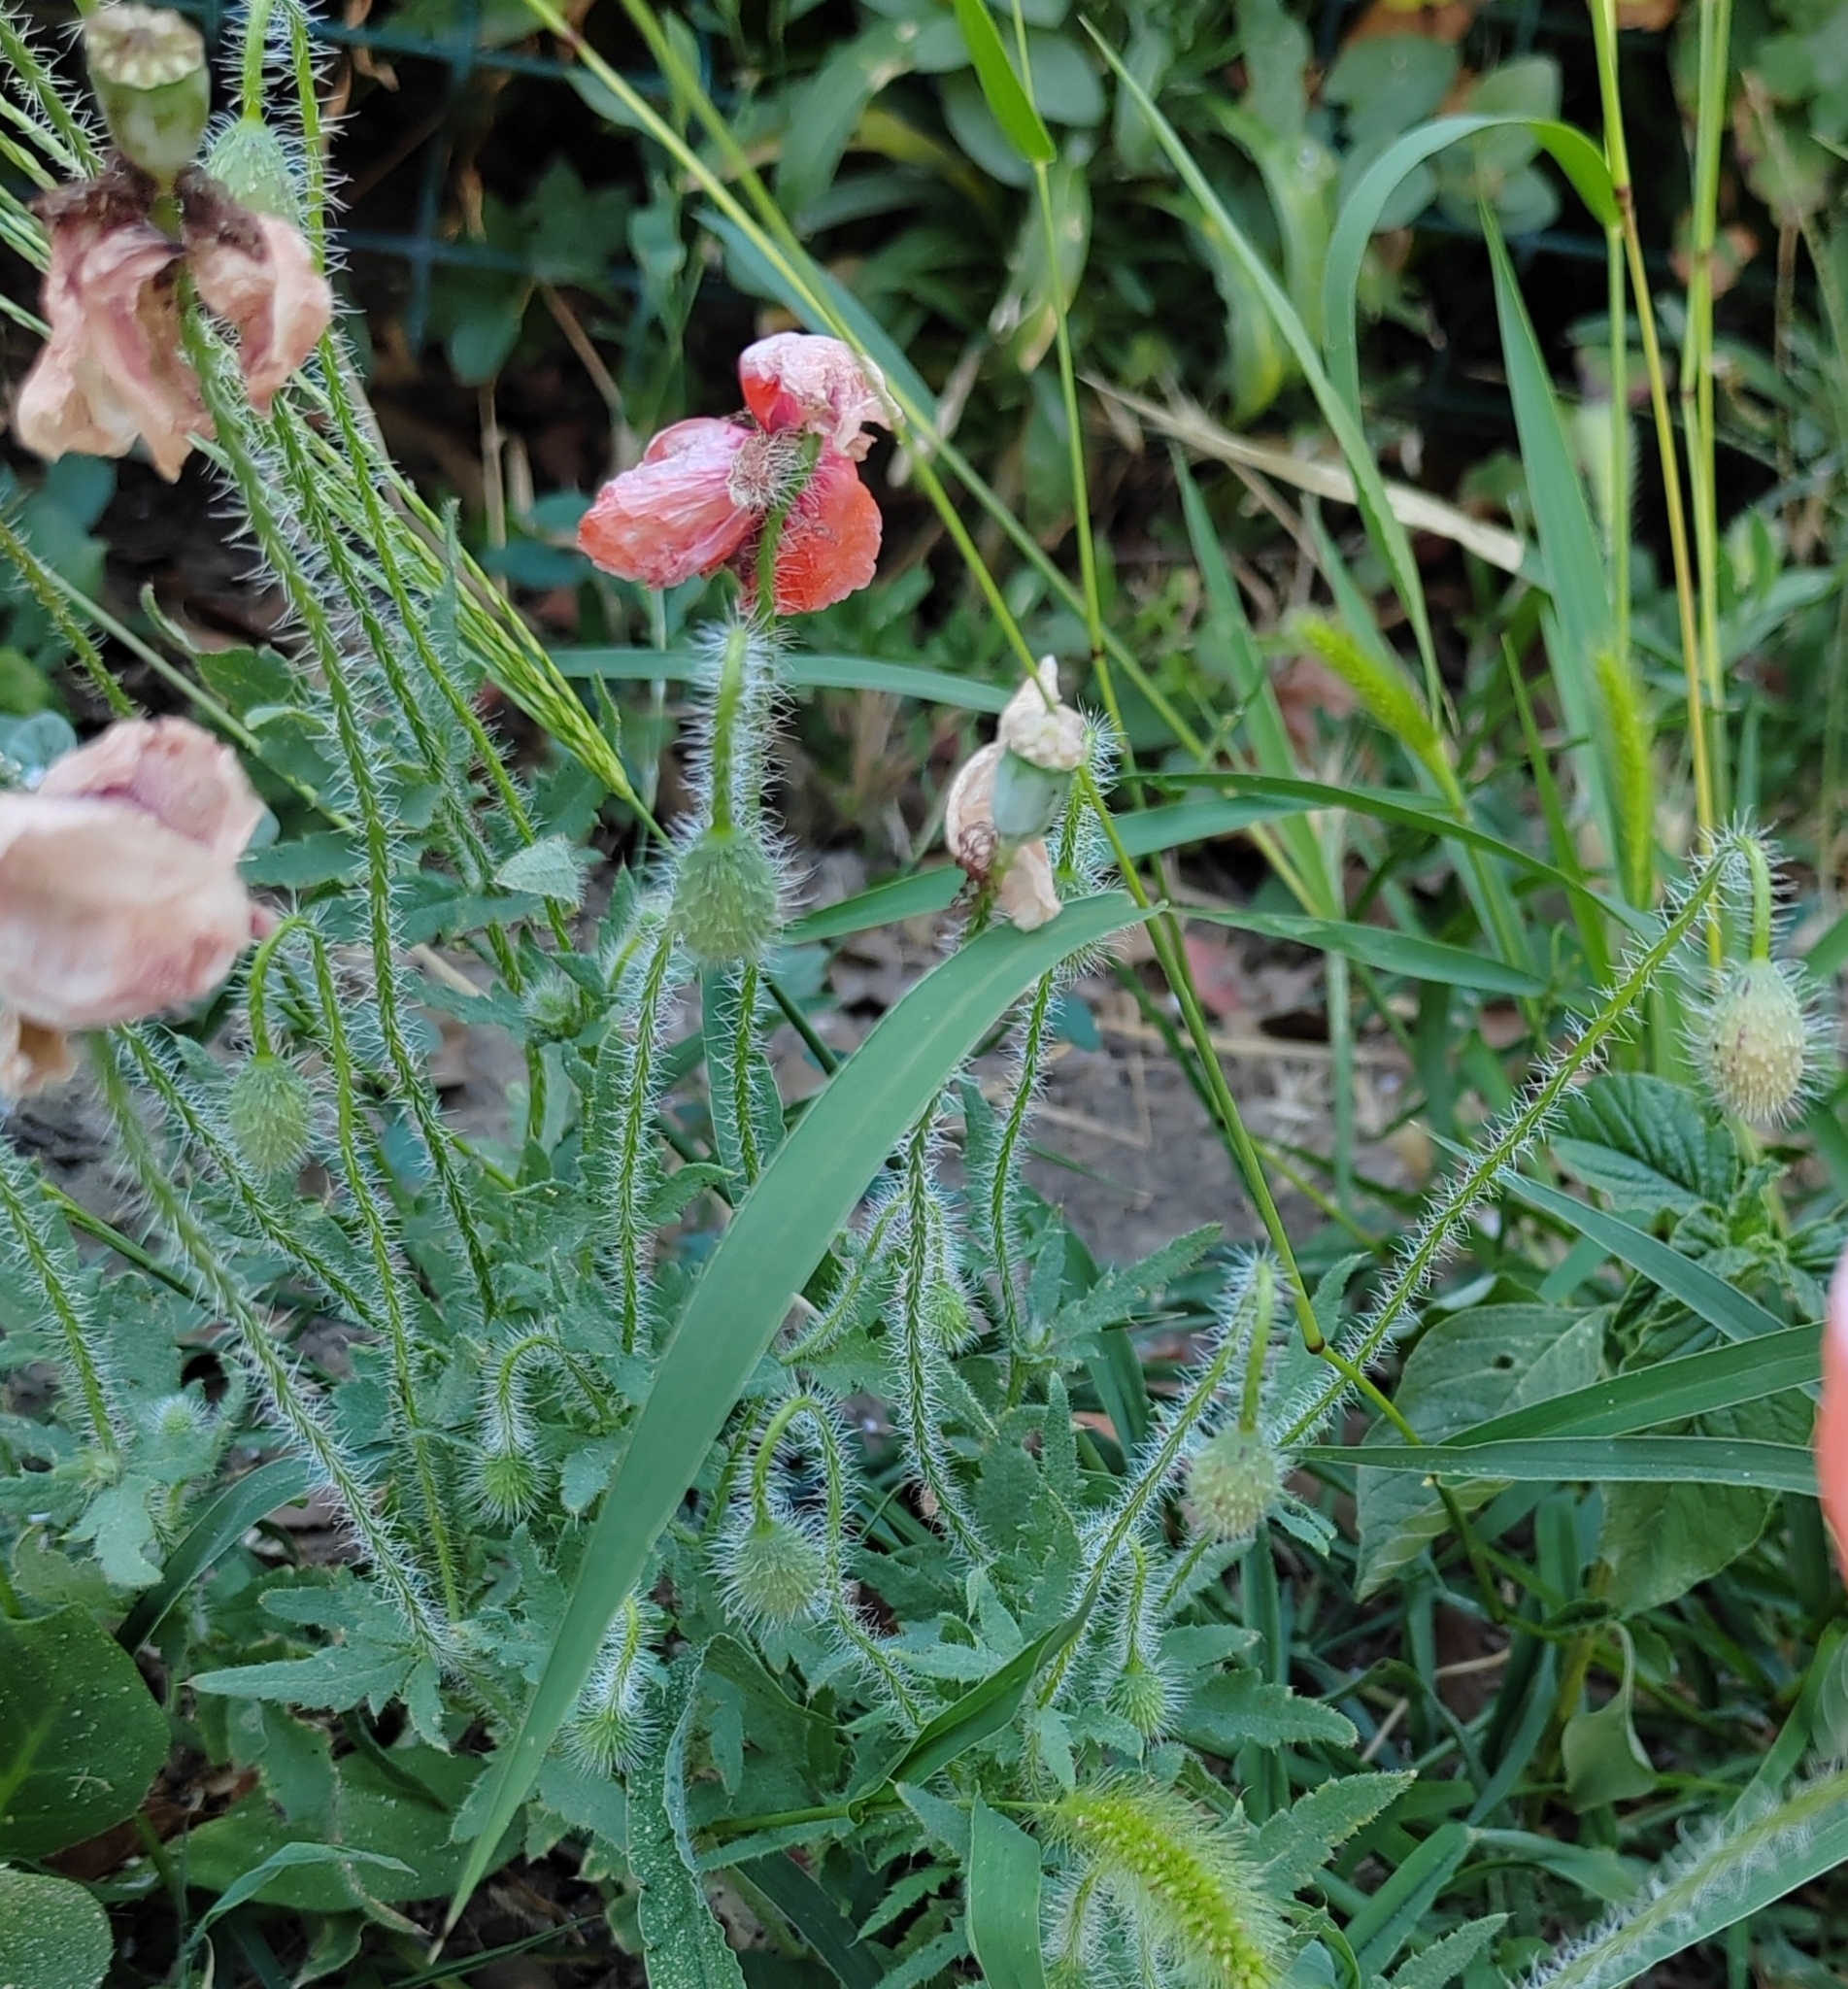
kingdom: Plantae
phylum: Tracheophyta
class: Magnoliopsida
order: Ranunculales
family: Papaveraceae
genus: Papaver
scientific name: Papaver rhoeas
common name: Corn poppy
